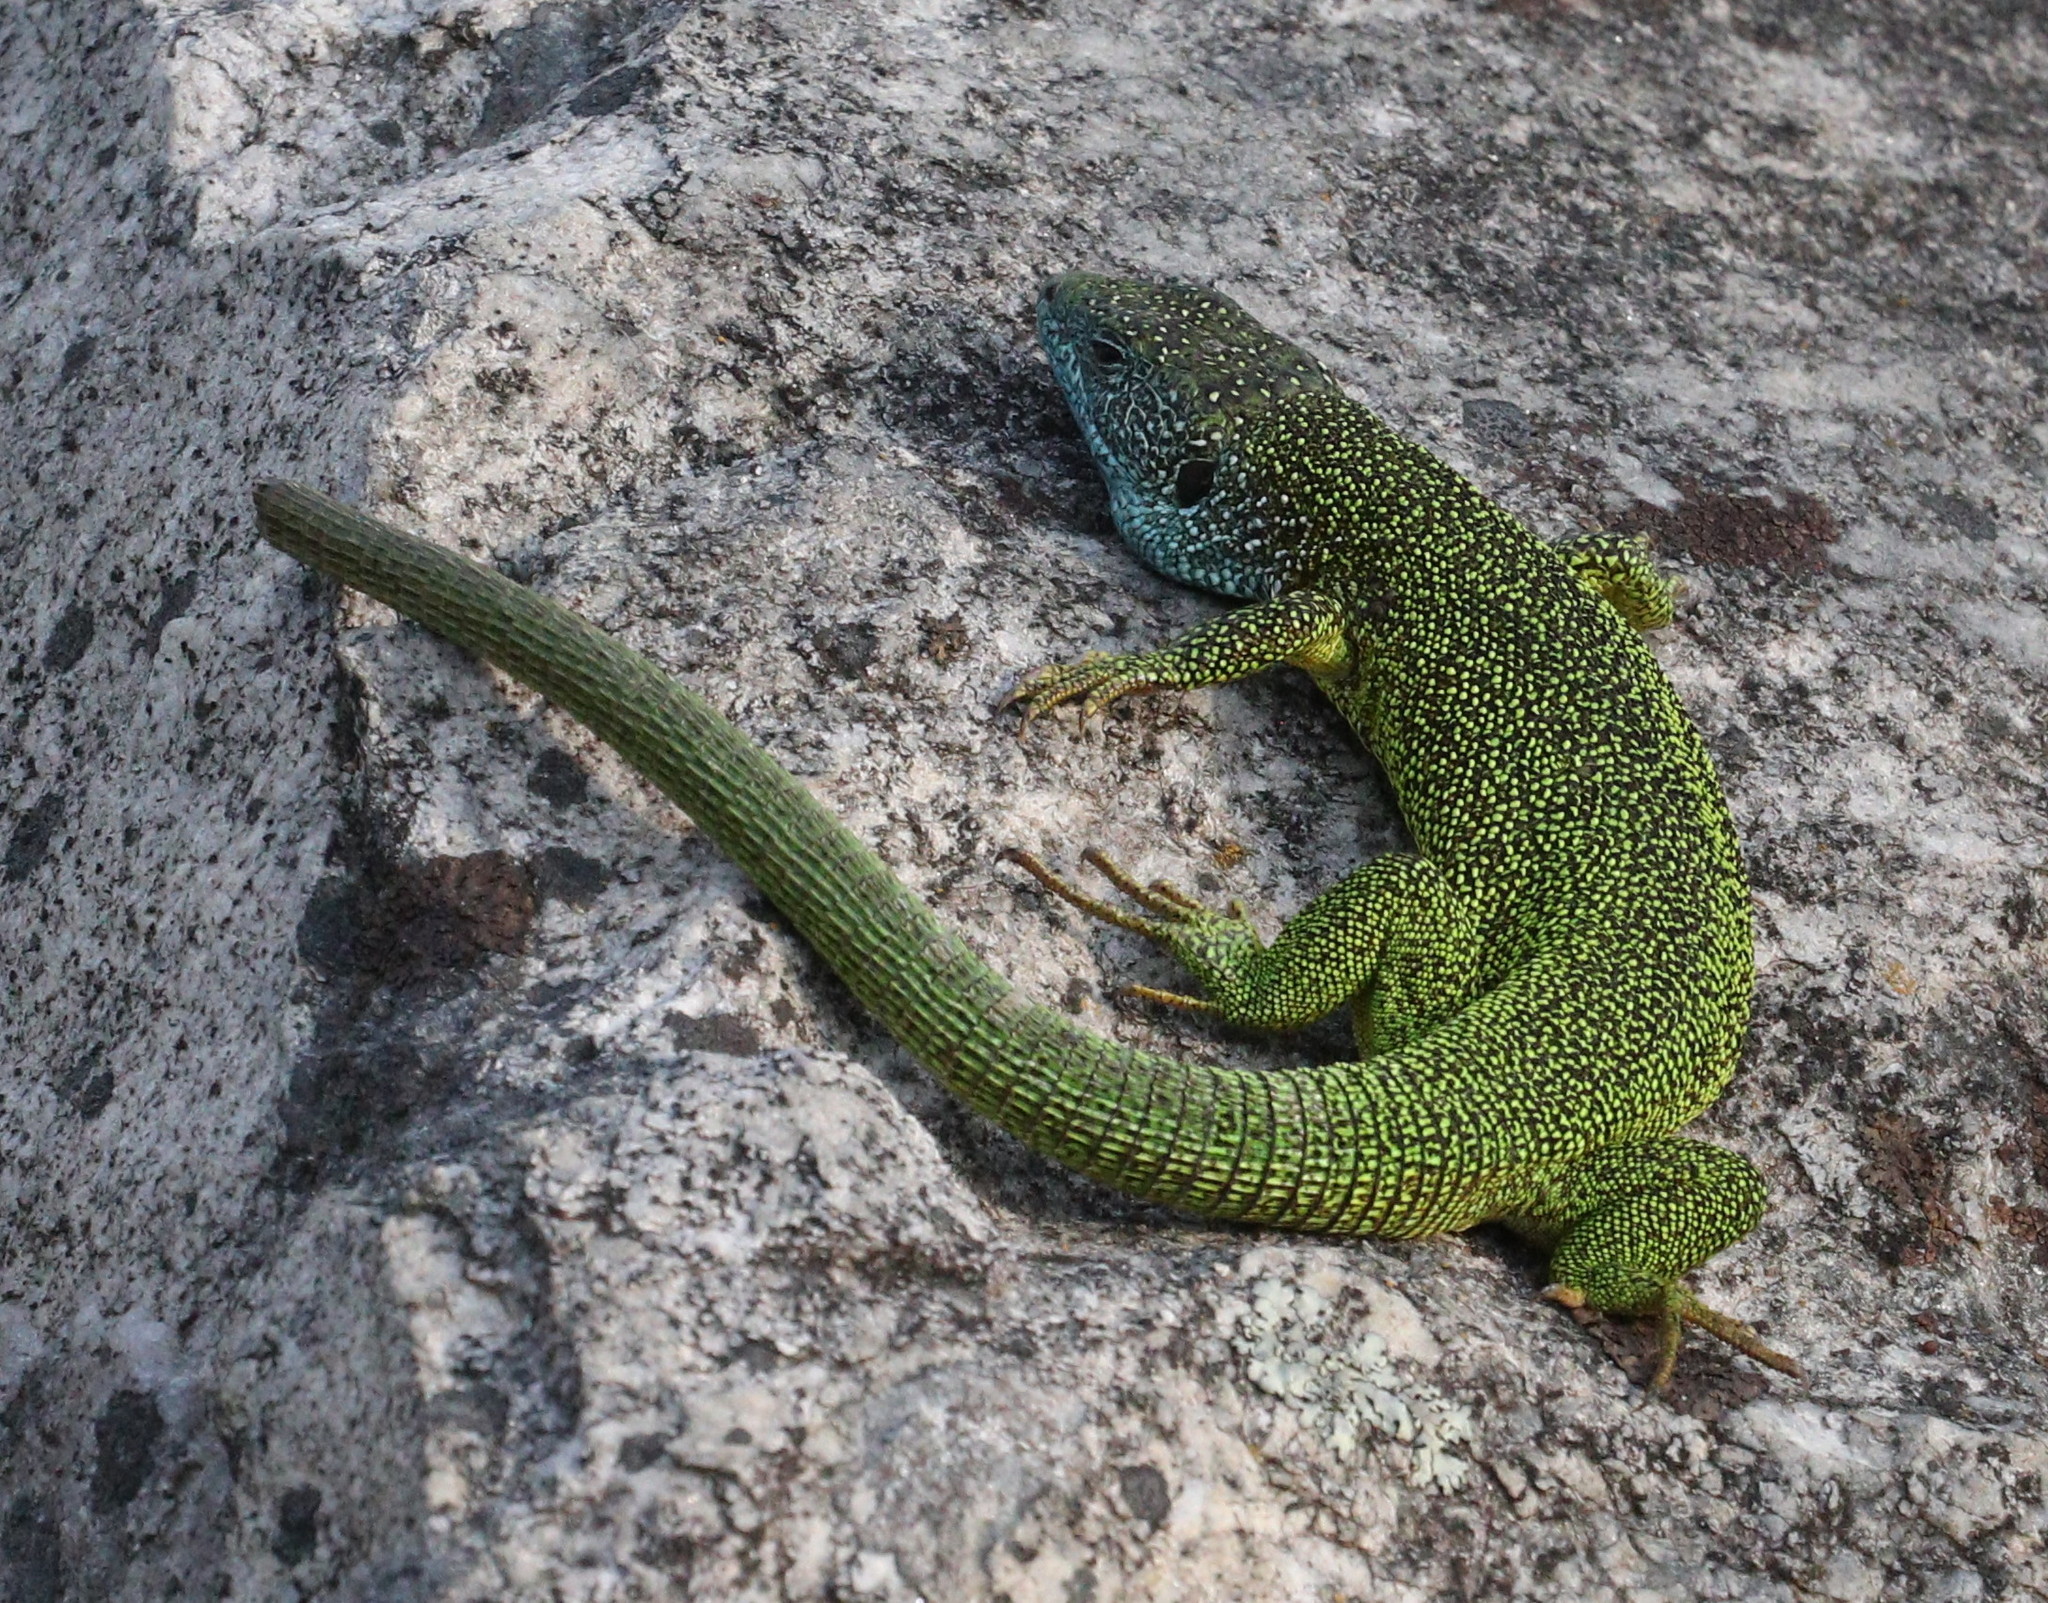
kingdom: Animalia
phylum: Chordata
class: Squamata
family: Lacertidae
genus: Lacerta
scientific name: Lacerta viridis
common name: European green lizard
